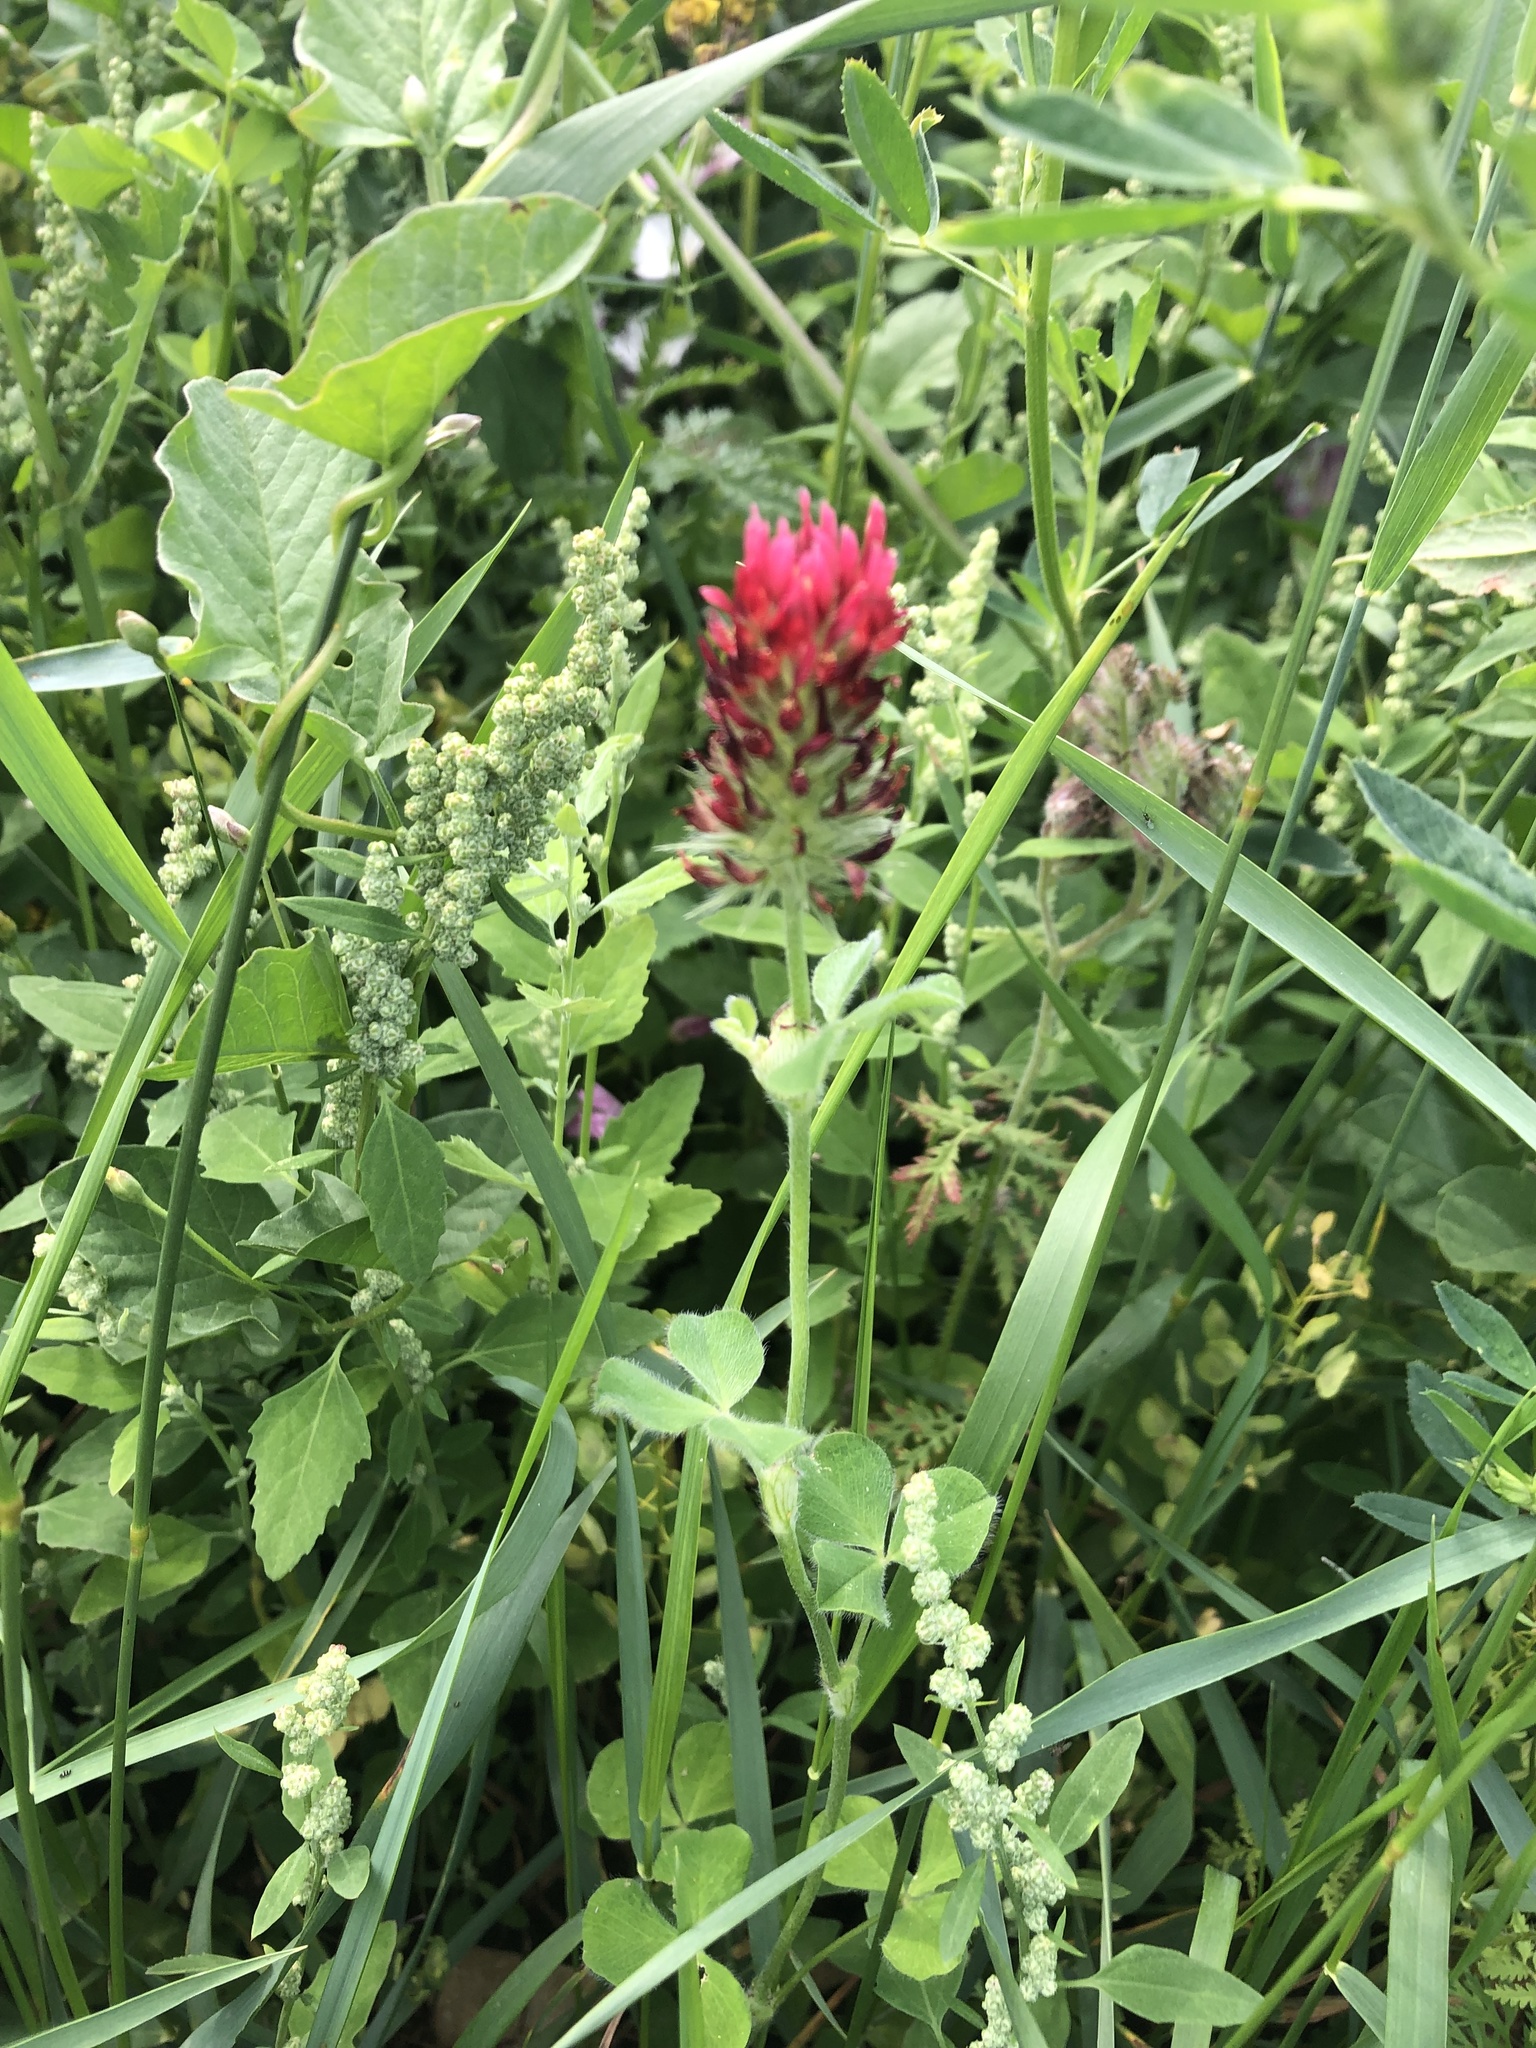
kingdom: Plantae
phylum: Tracheophyta
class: Magnoliopsida
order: Fabales
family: Fabaceae
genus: Trifolium
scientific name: Trifolium incarnatum
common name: Crimson clover
